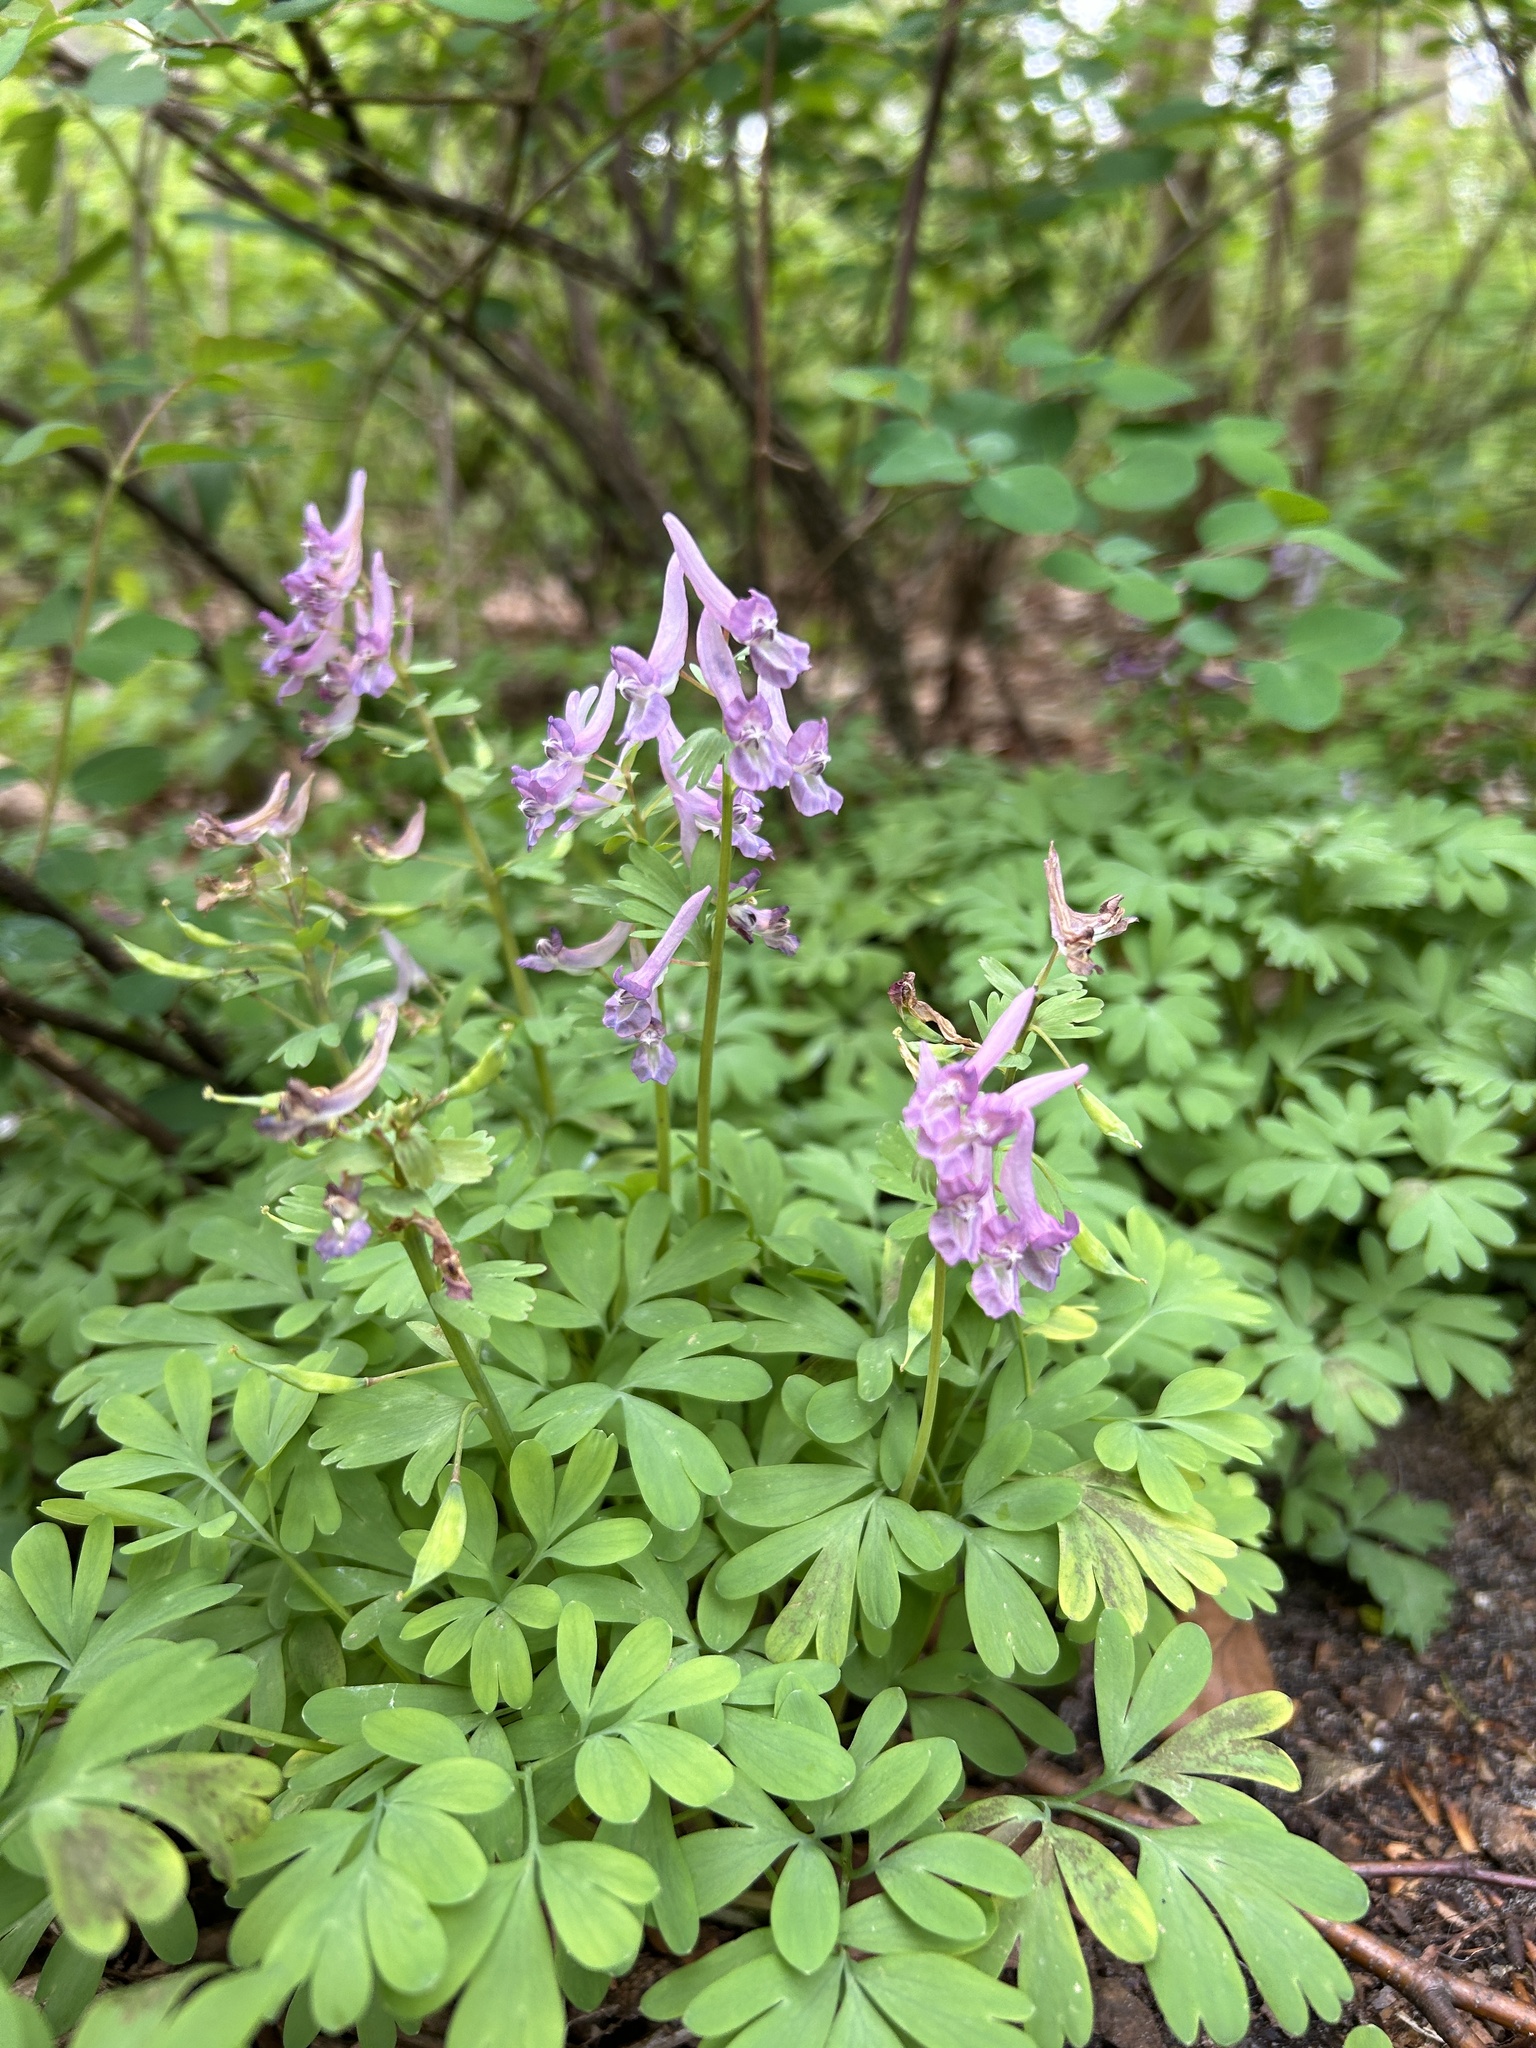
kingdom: Plantae
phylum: Tracheophyta
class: Magnoliopsida
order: Ranunculales
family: Papaveraceae
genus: Corydalis
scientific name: Corydalis solida
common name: Bird-in-a-bush
